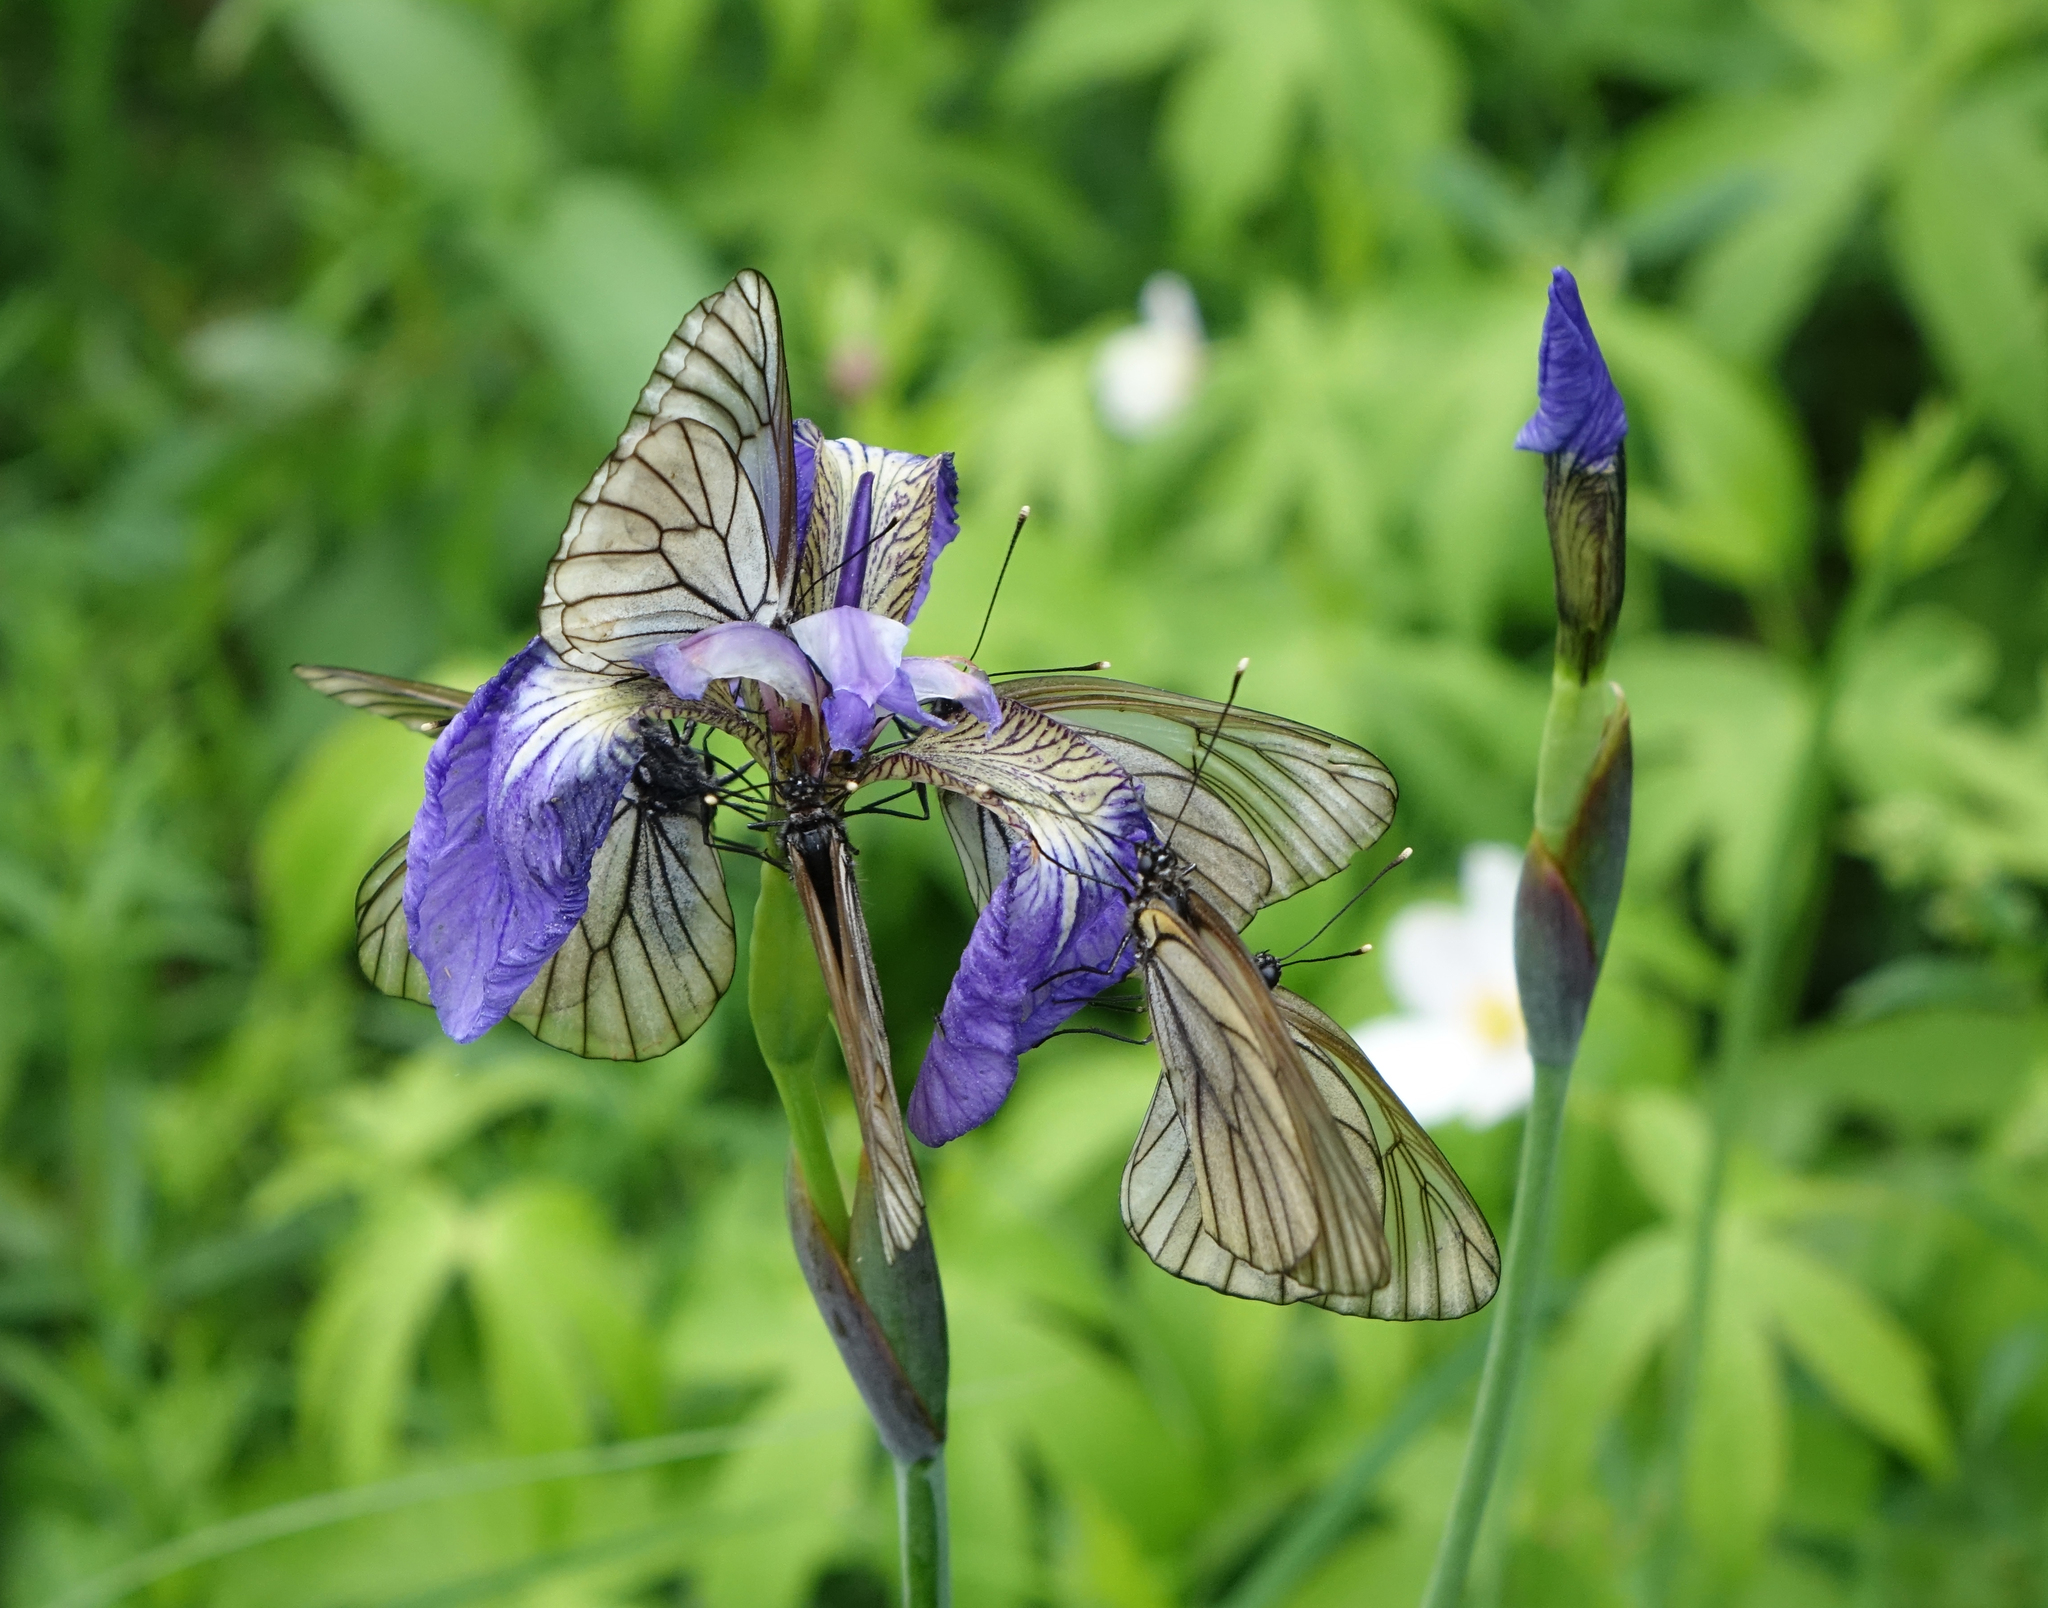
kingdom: Animalia
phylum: Arthropoda
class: Insecta
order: Lepidoptera
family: Pieridae
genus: Aporia
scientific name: Aporia crataegi
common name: Black-veined white
